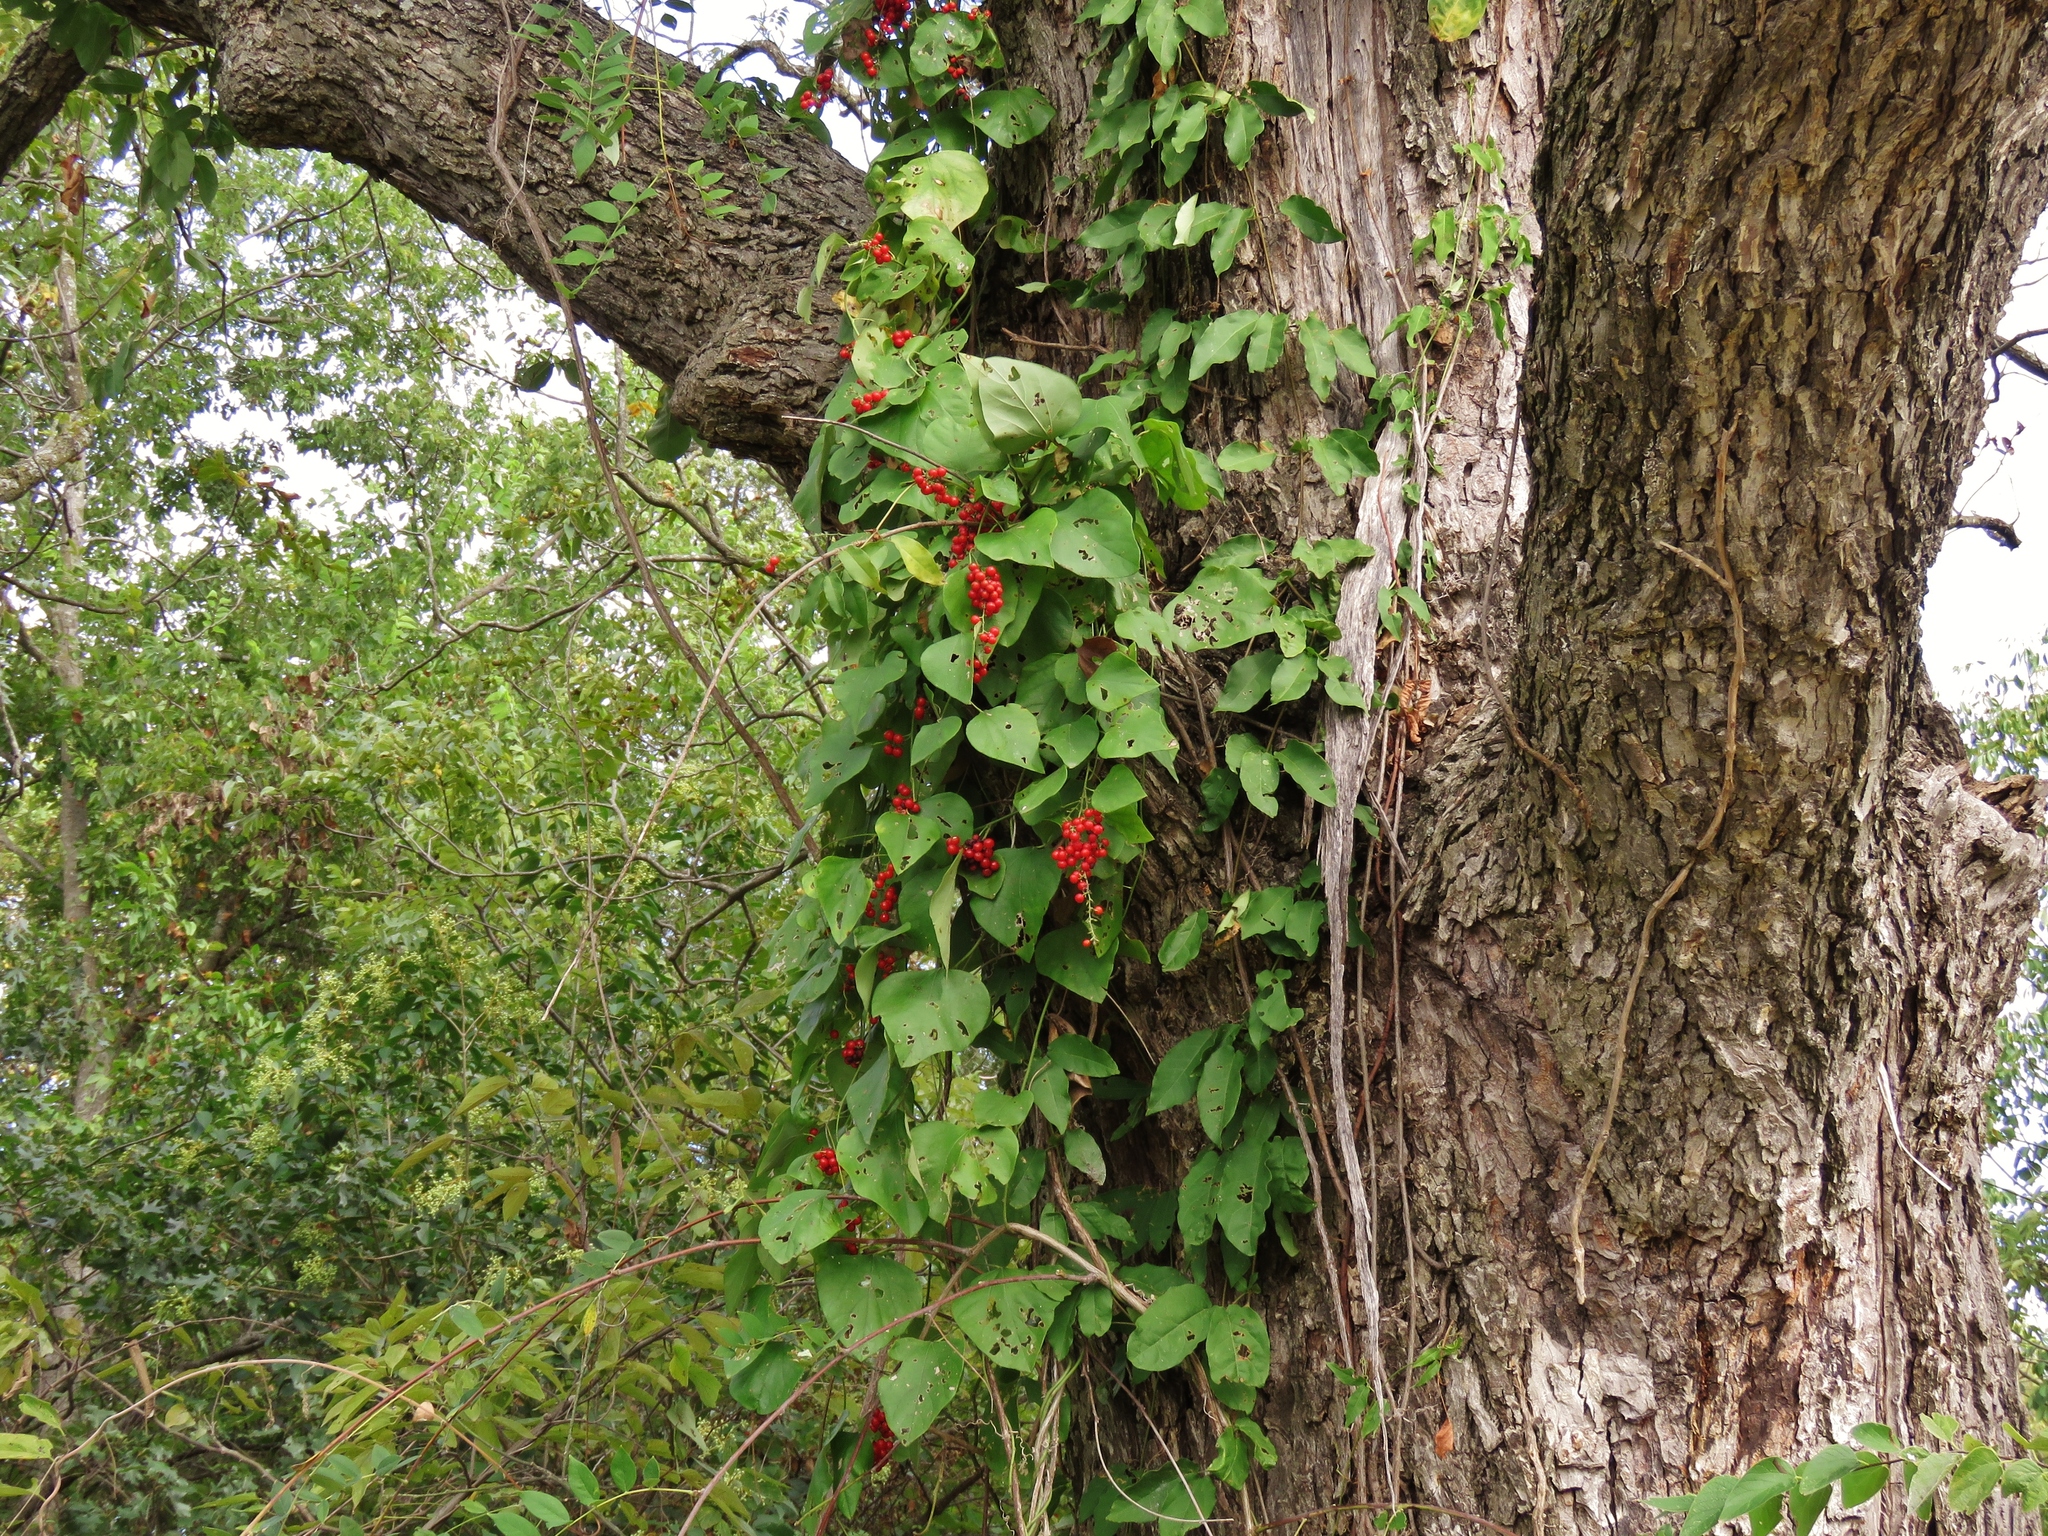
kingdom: Plantae
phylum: Tracheophyta
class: Magnoliopsida
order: Ranunculales
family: Menispermaceae
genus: Cocculus
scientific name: Cocculus carolinus
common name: Carolina moonseed
